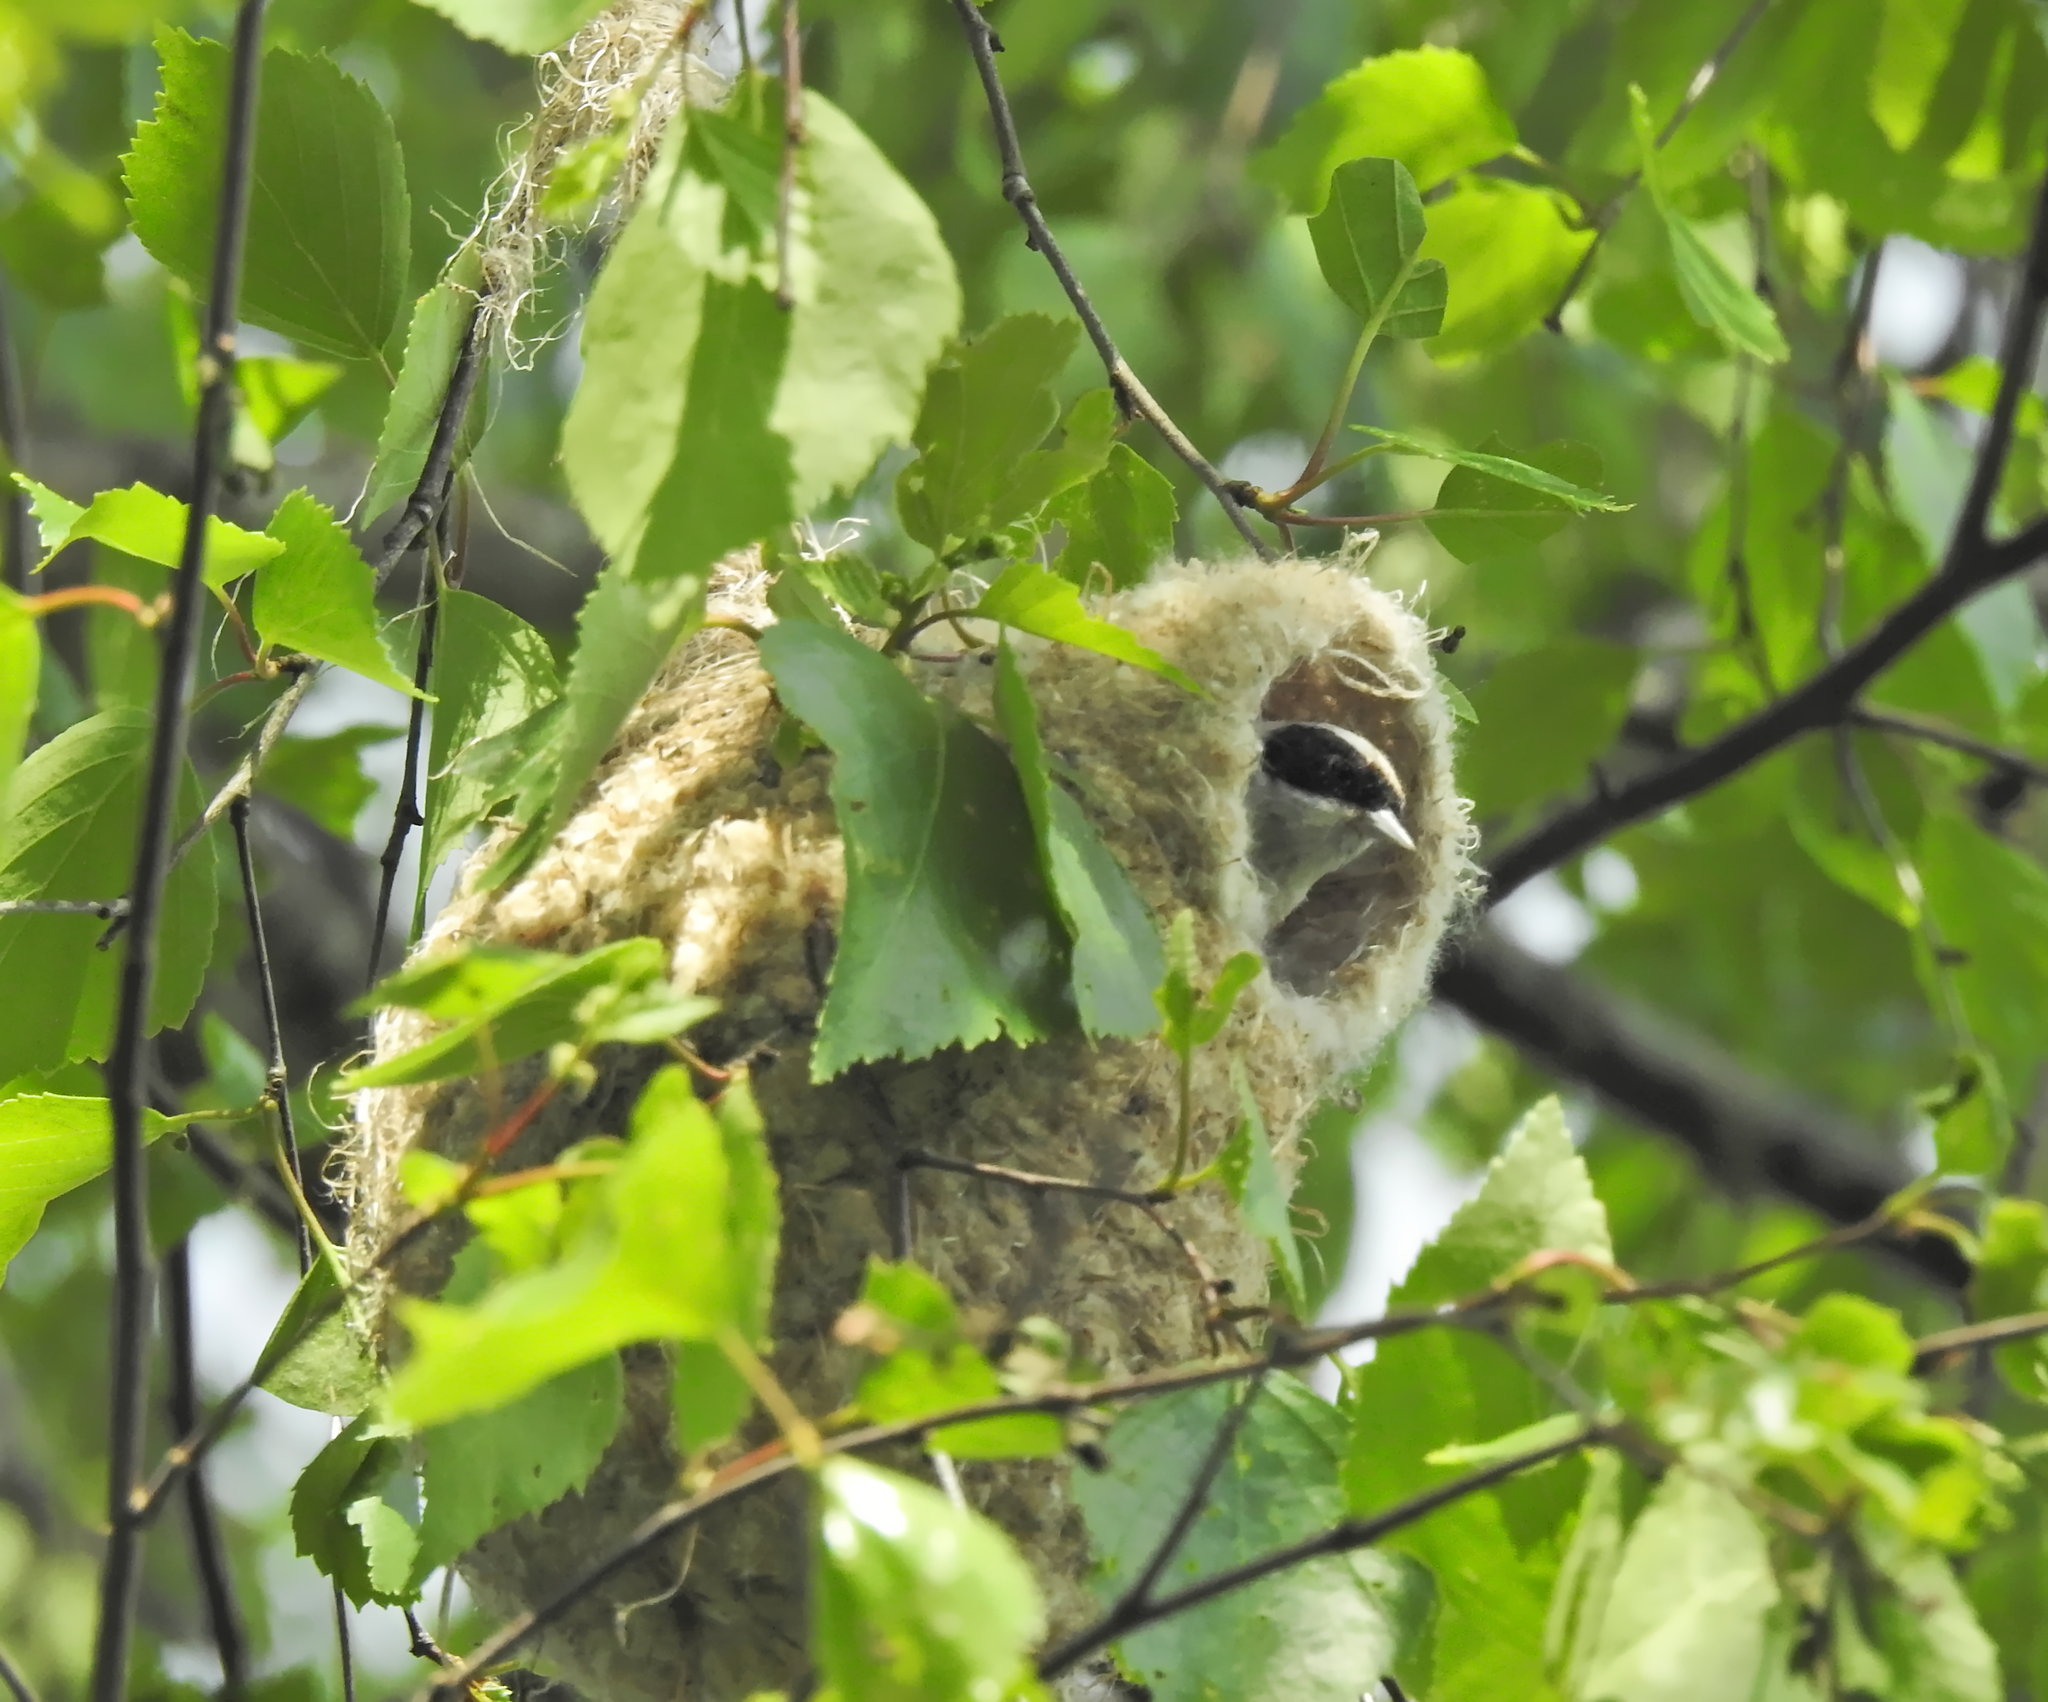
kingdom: Animalia
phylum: Chordata
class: Aves
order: Passeriformes
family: Remizidae
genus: Remiz
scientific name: Remiz pendulinus
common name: Eurasian penduline tit
